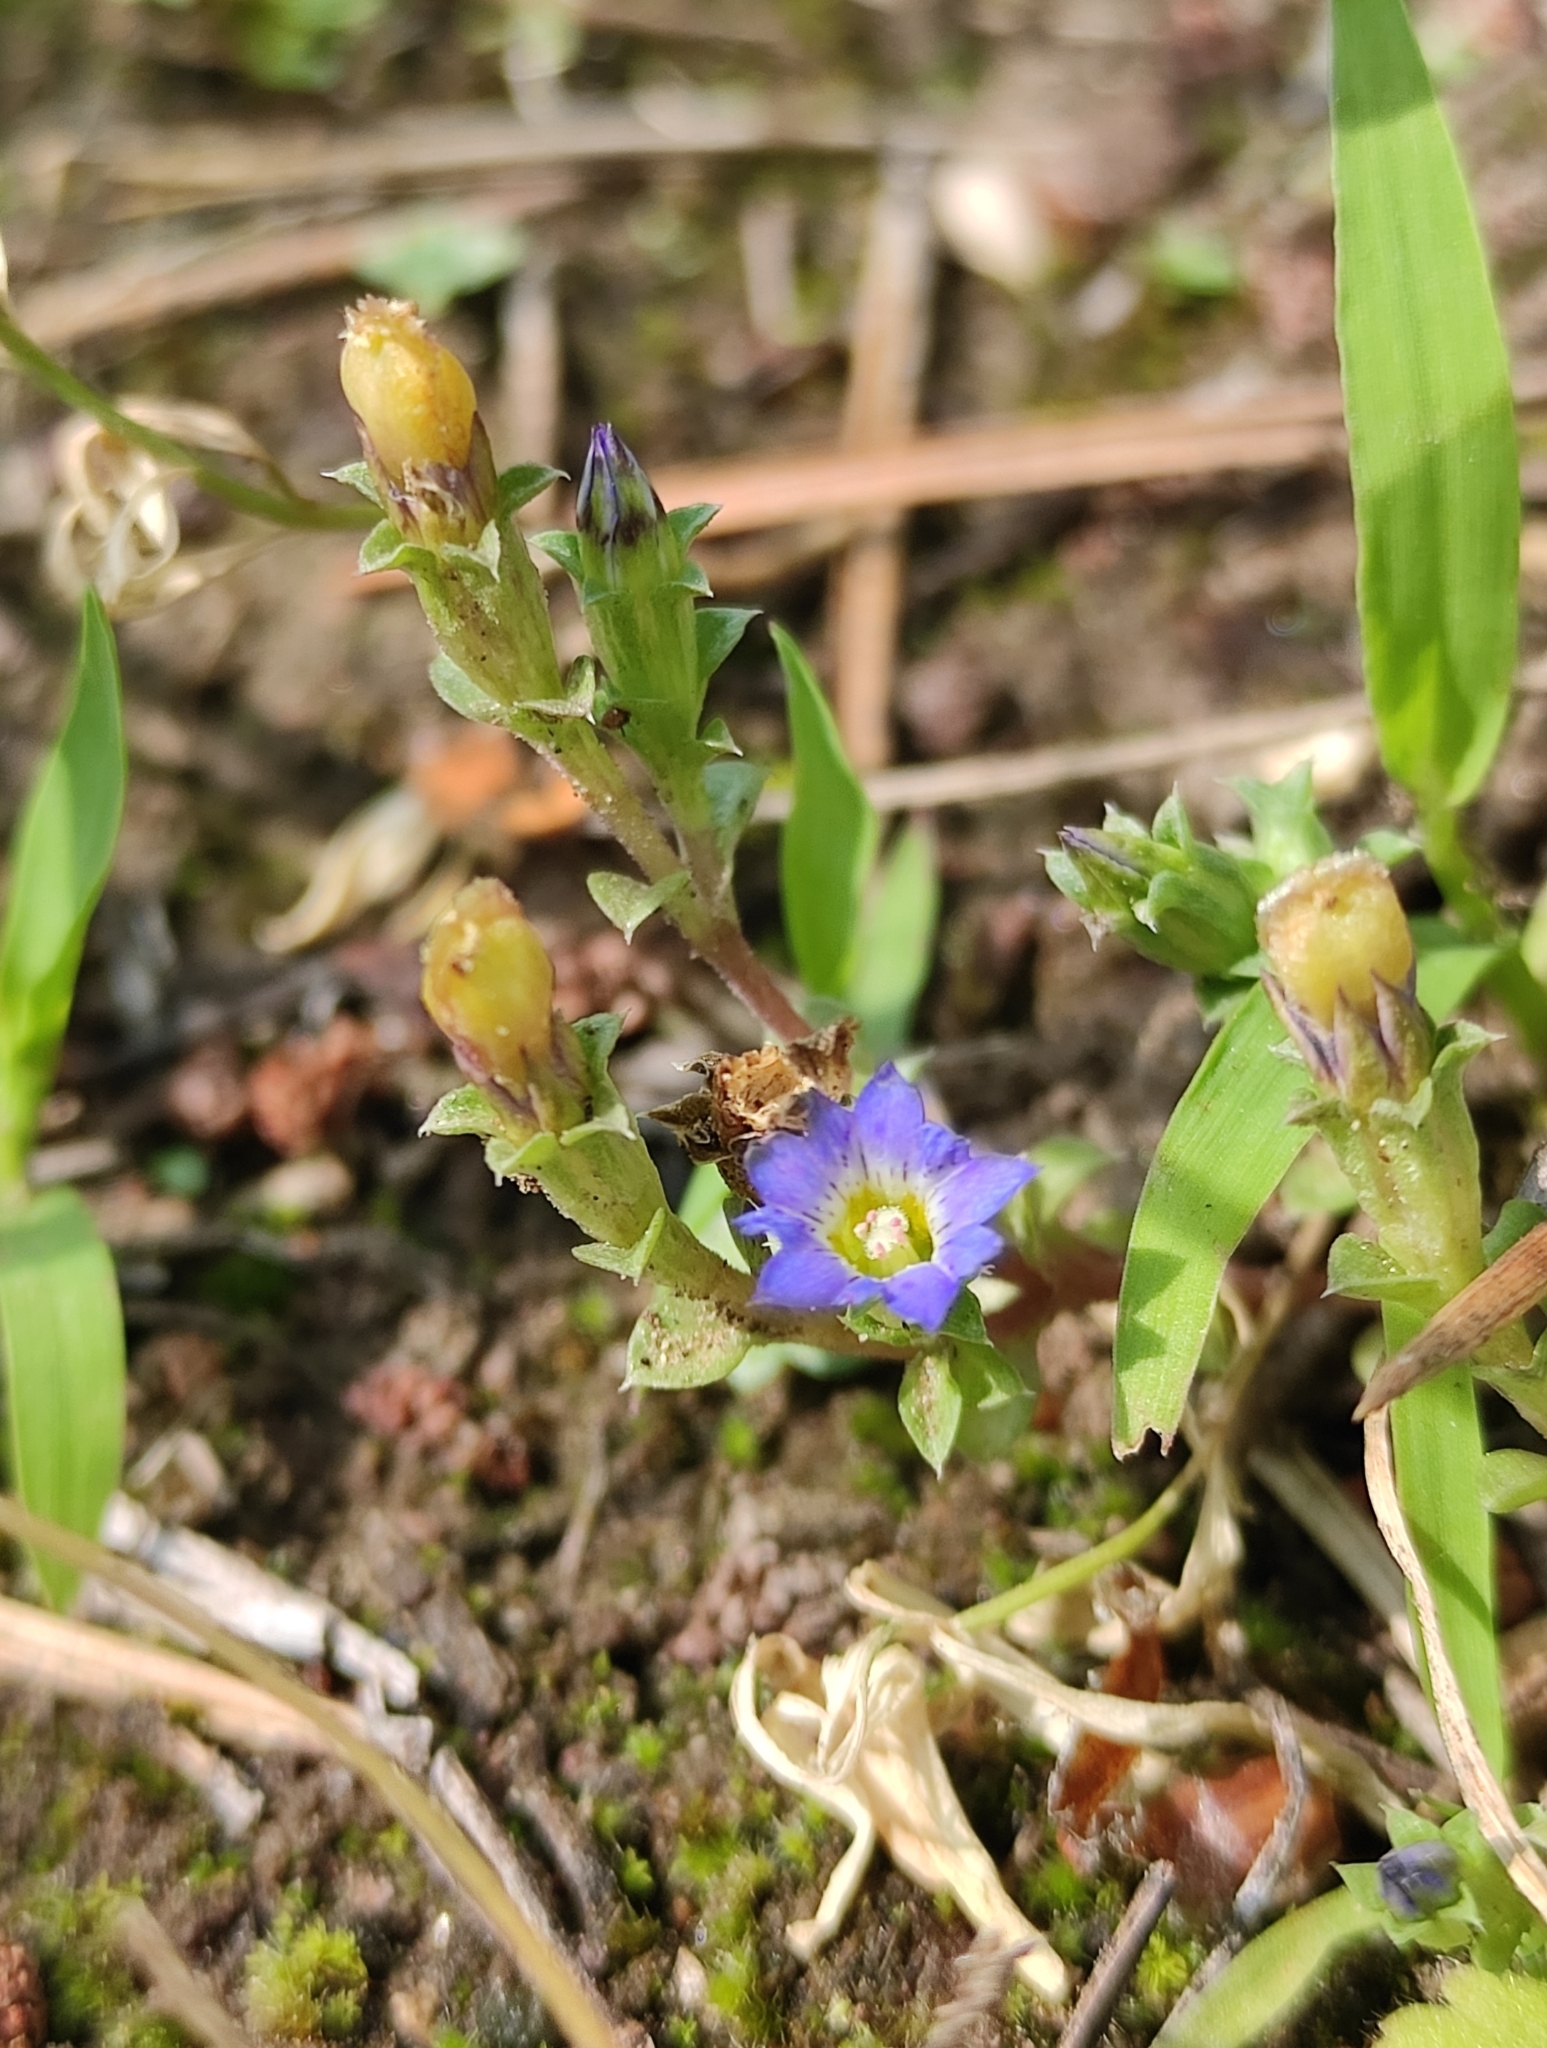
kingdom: Plantae
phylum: Tracheophyta
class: Magnoliopsida
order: Gentianales
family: Gentianaceae
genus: Gentiana
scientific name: Gentiana squarrosa
